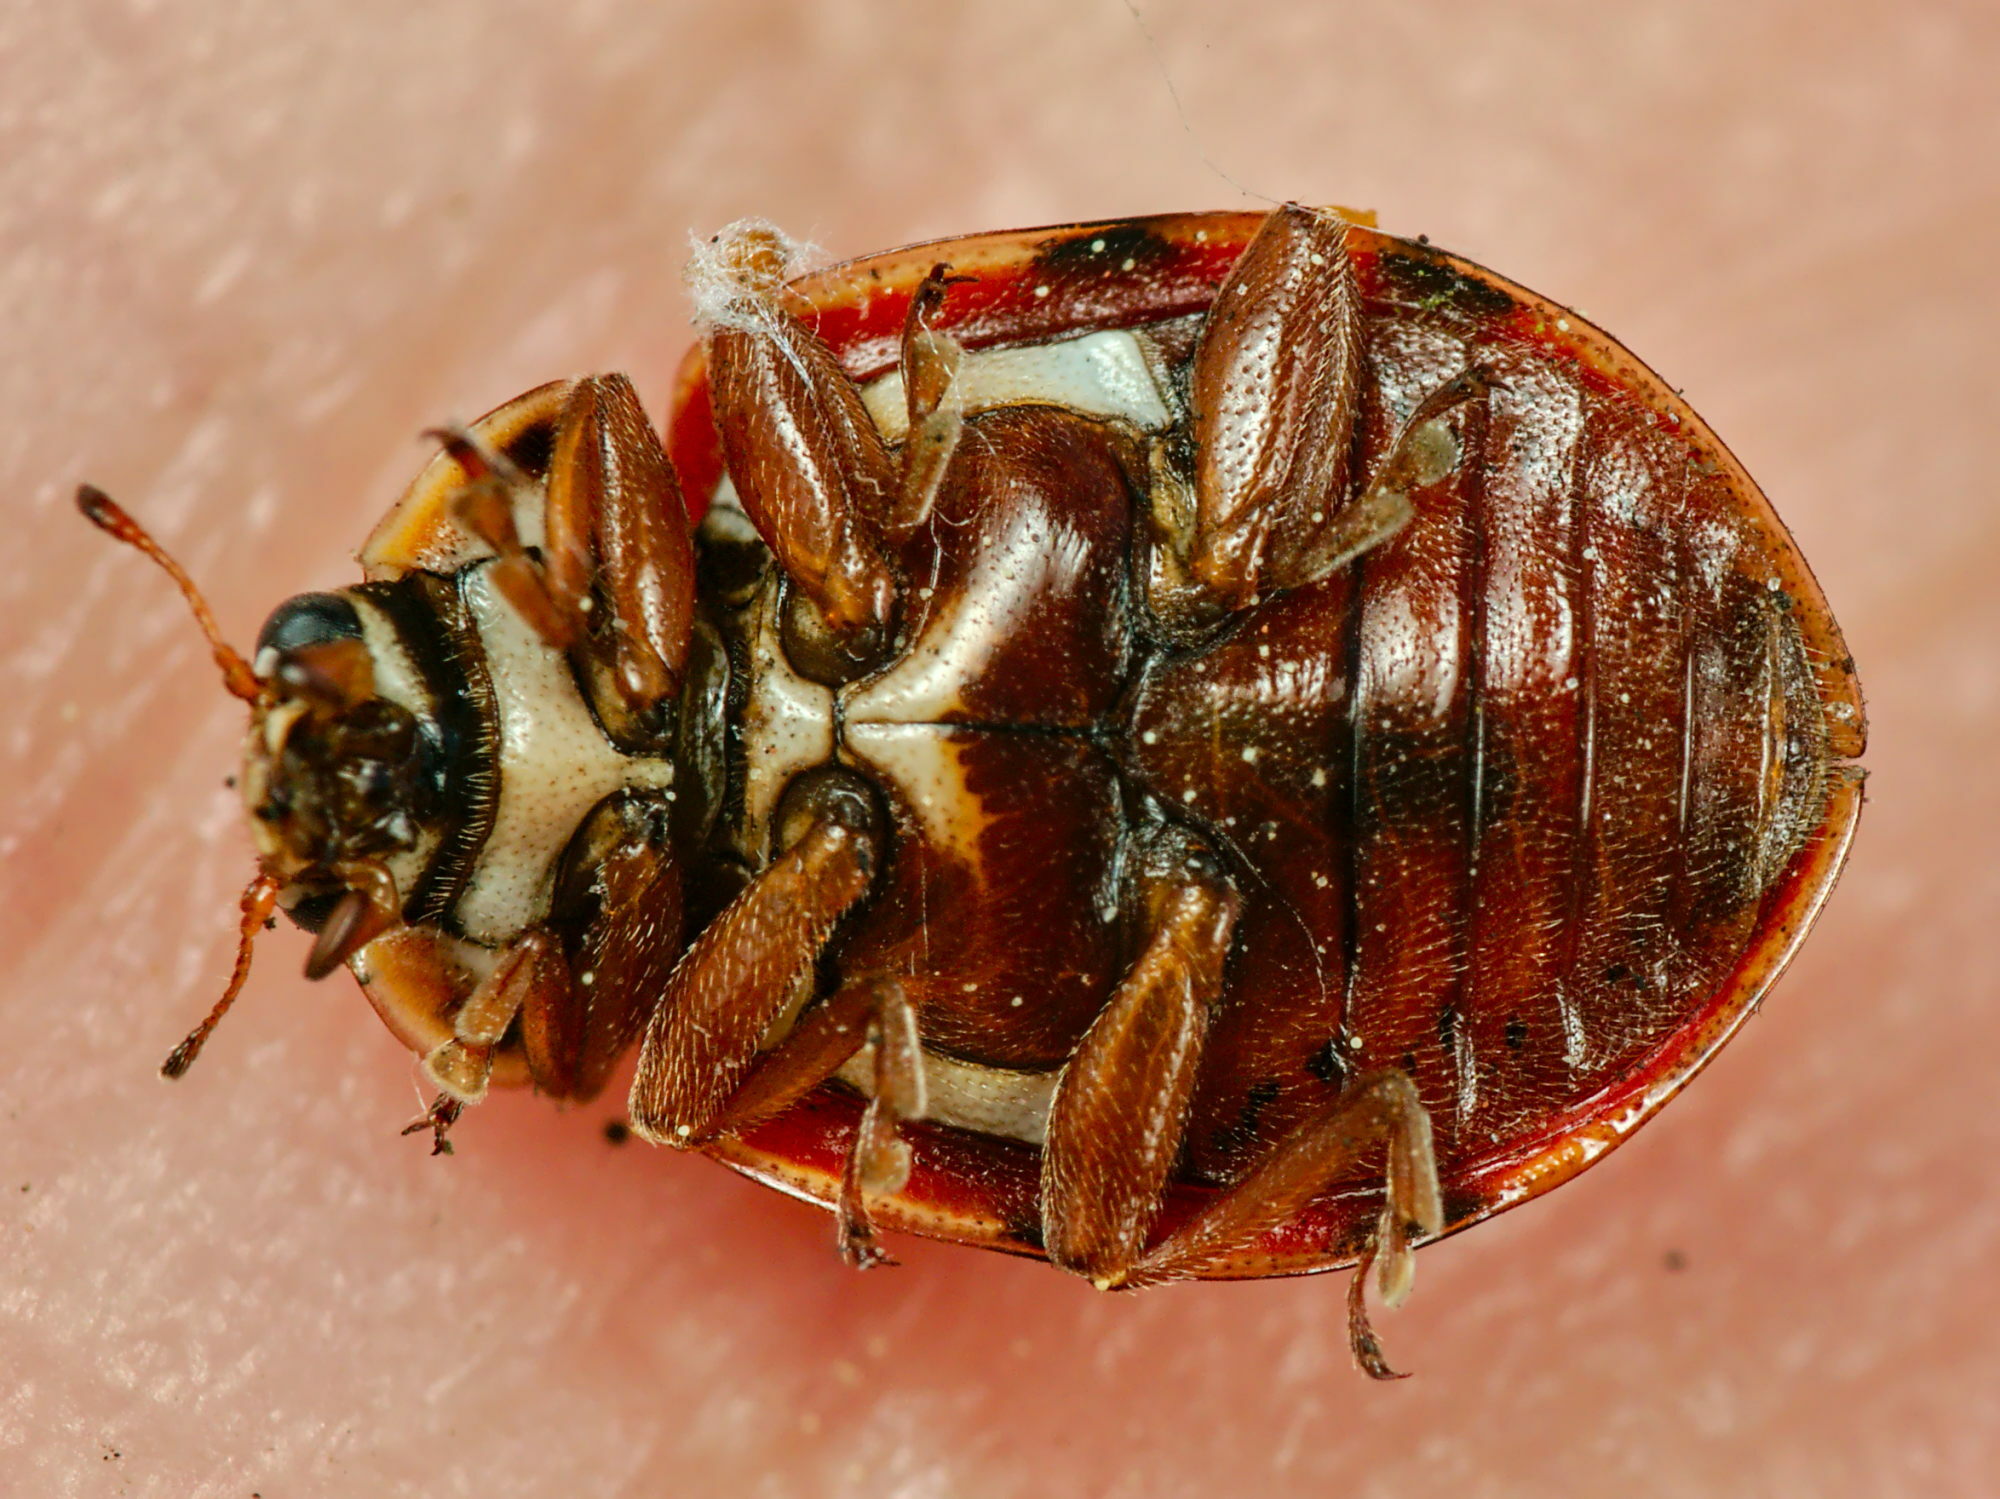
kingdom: Animalia
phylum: Arthropoda
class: Insecta
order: Coleoptera
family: Coccinellidae
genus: Harmonia
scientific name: Harmonia quadripunctata
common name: Cream-streaked ladybird
